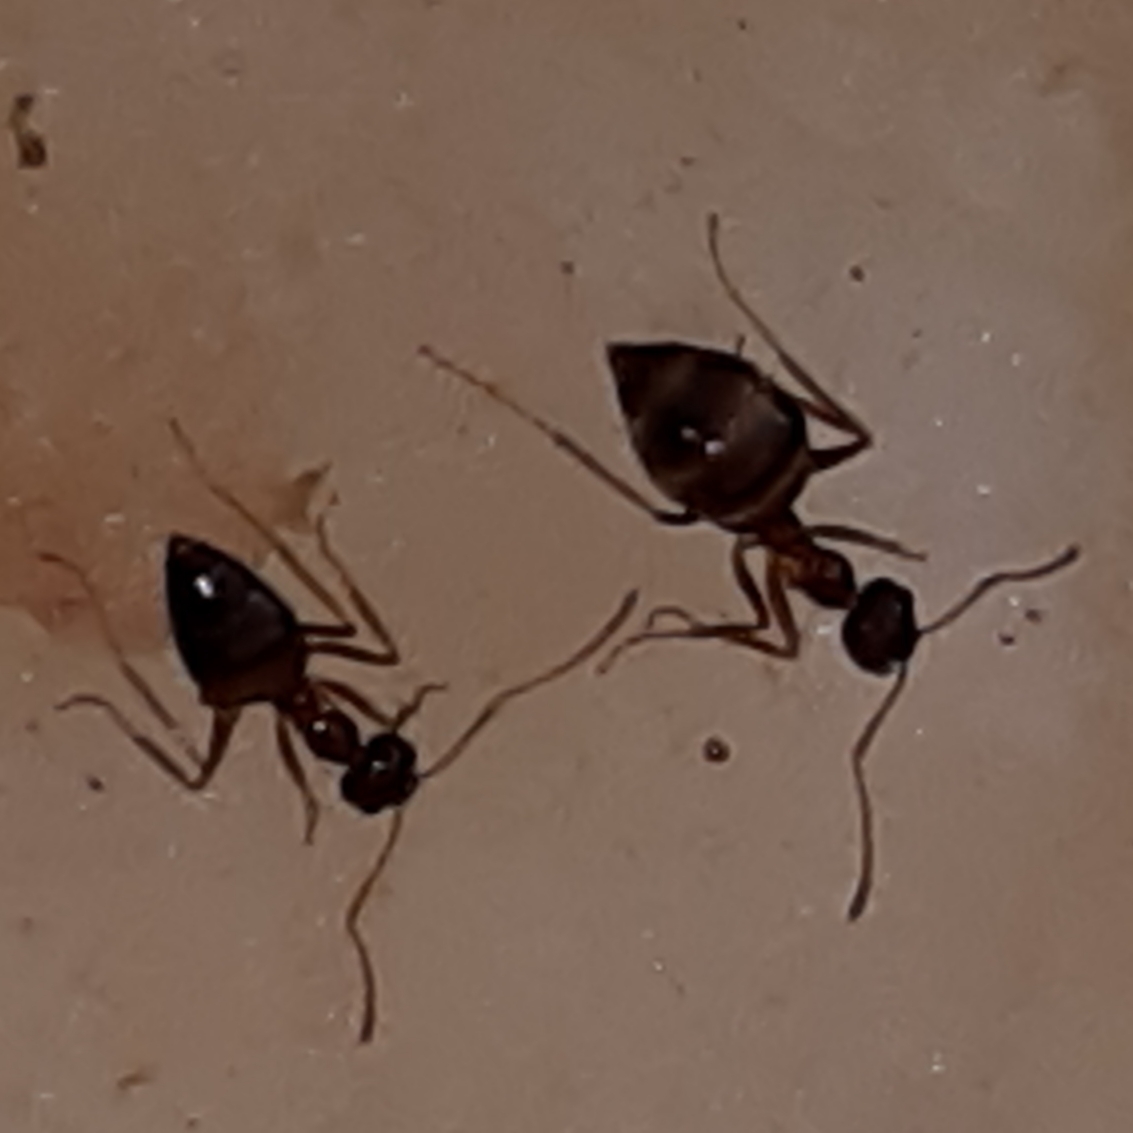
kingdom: Animalia
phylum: Arthropoda
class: Insecta
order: Hymenoptera
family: Formicidae
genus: Prenolepis
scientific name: Prenolepis imparis
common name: Small honey ant
